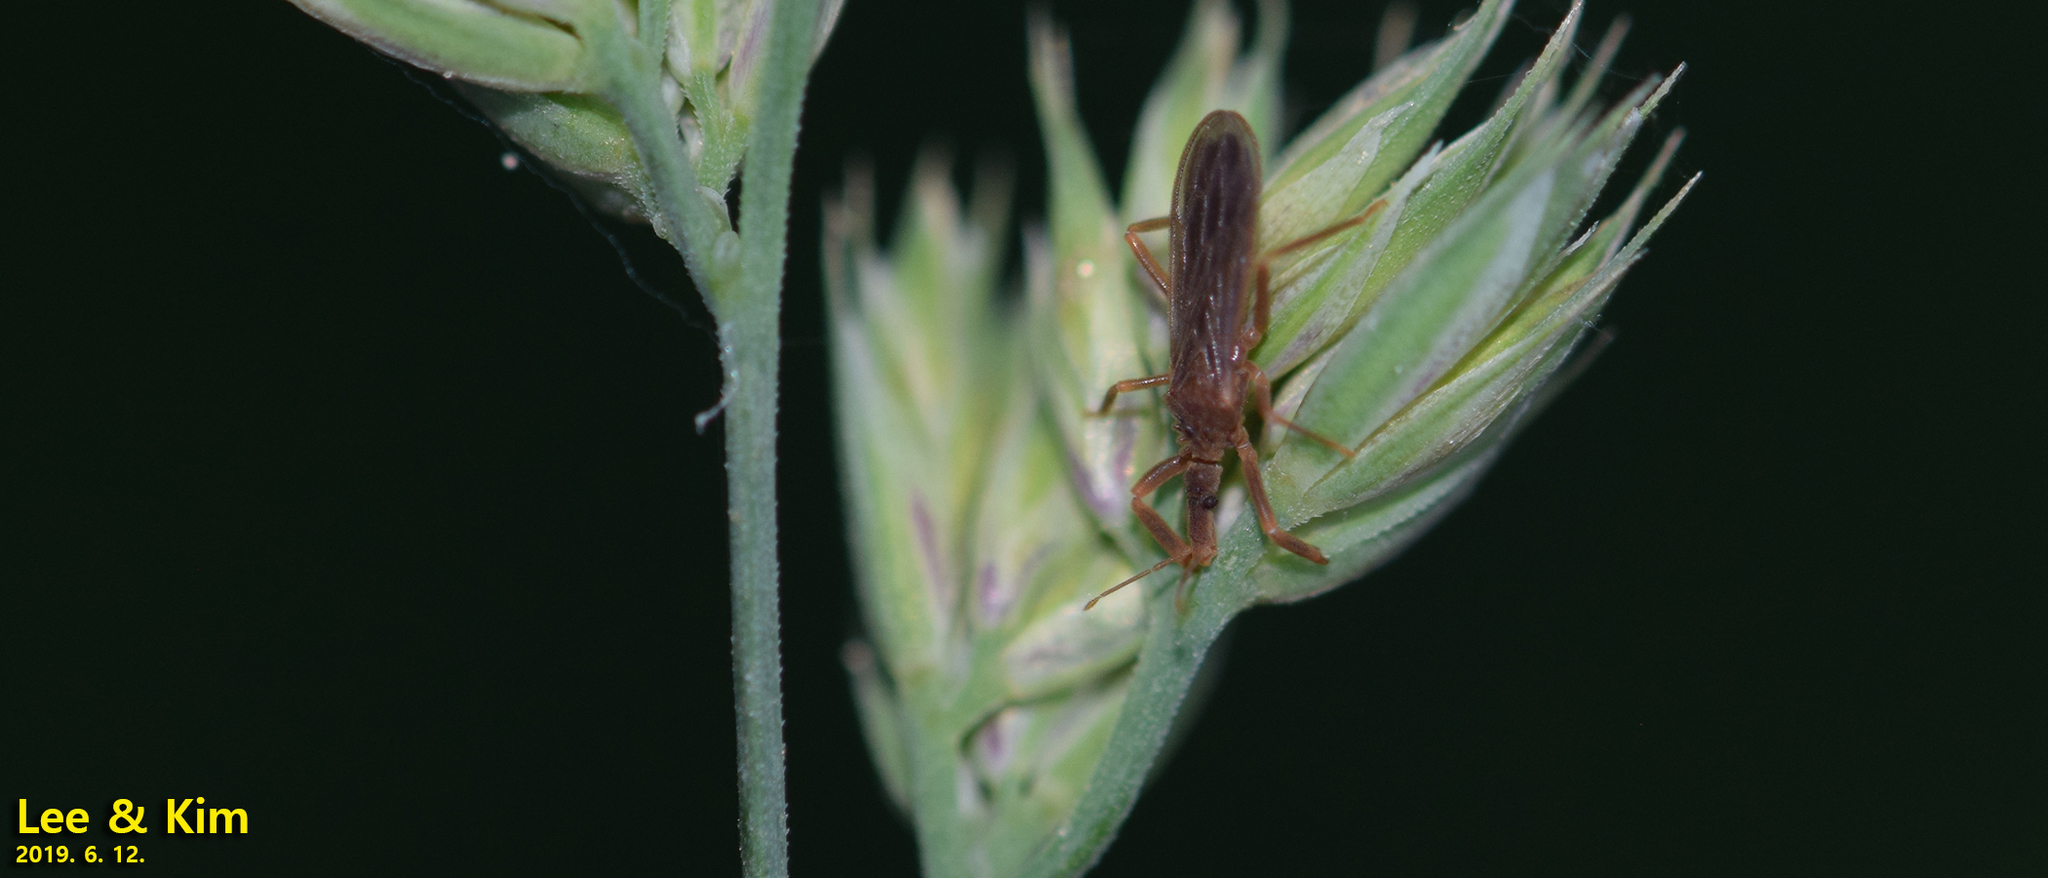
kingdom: Animalia
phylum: Arthropoda
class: Insecta
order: Hemiptera
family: Enicocephalidae
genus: Hoplitocoris
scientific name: Hoplitocoris lewisi
